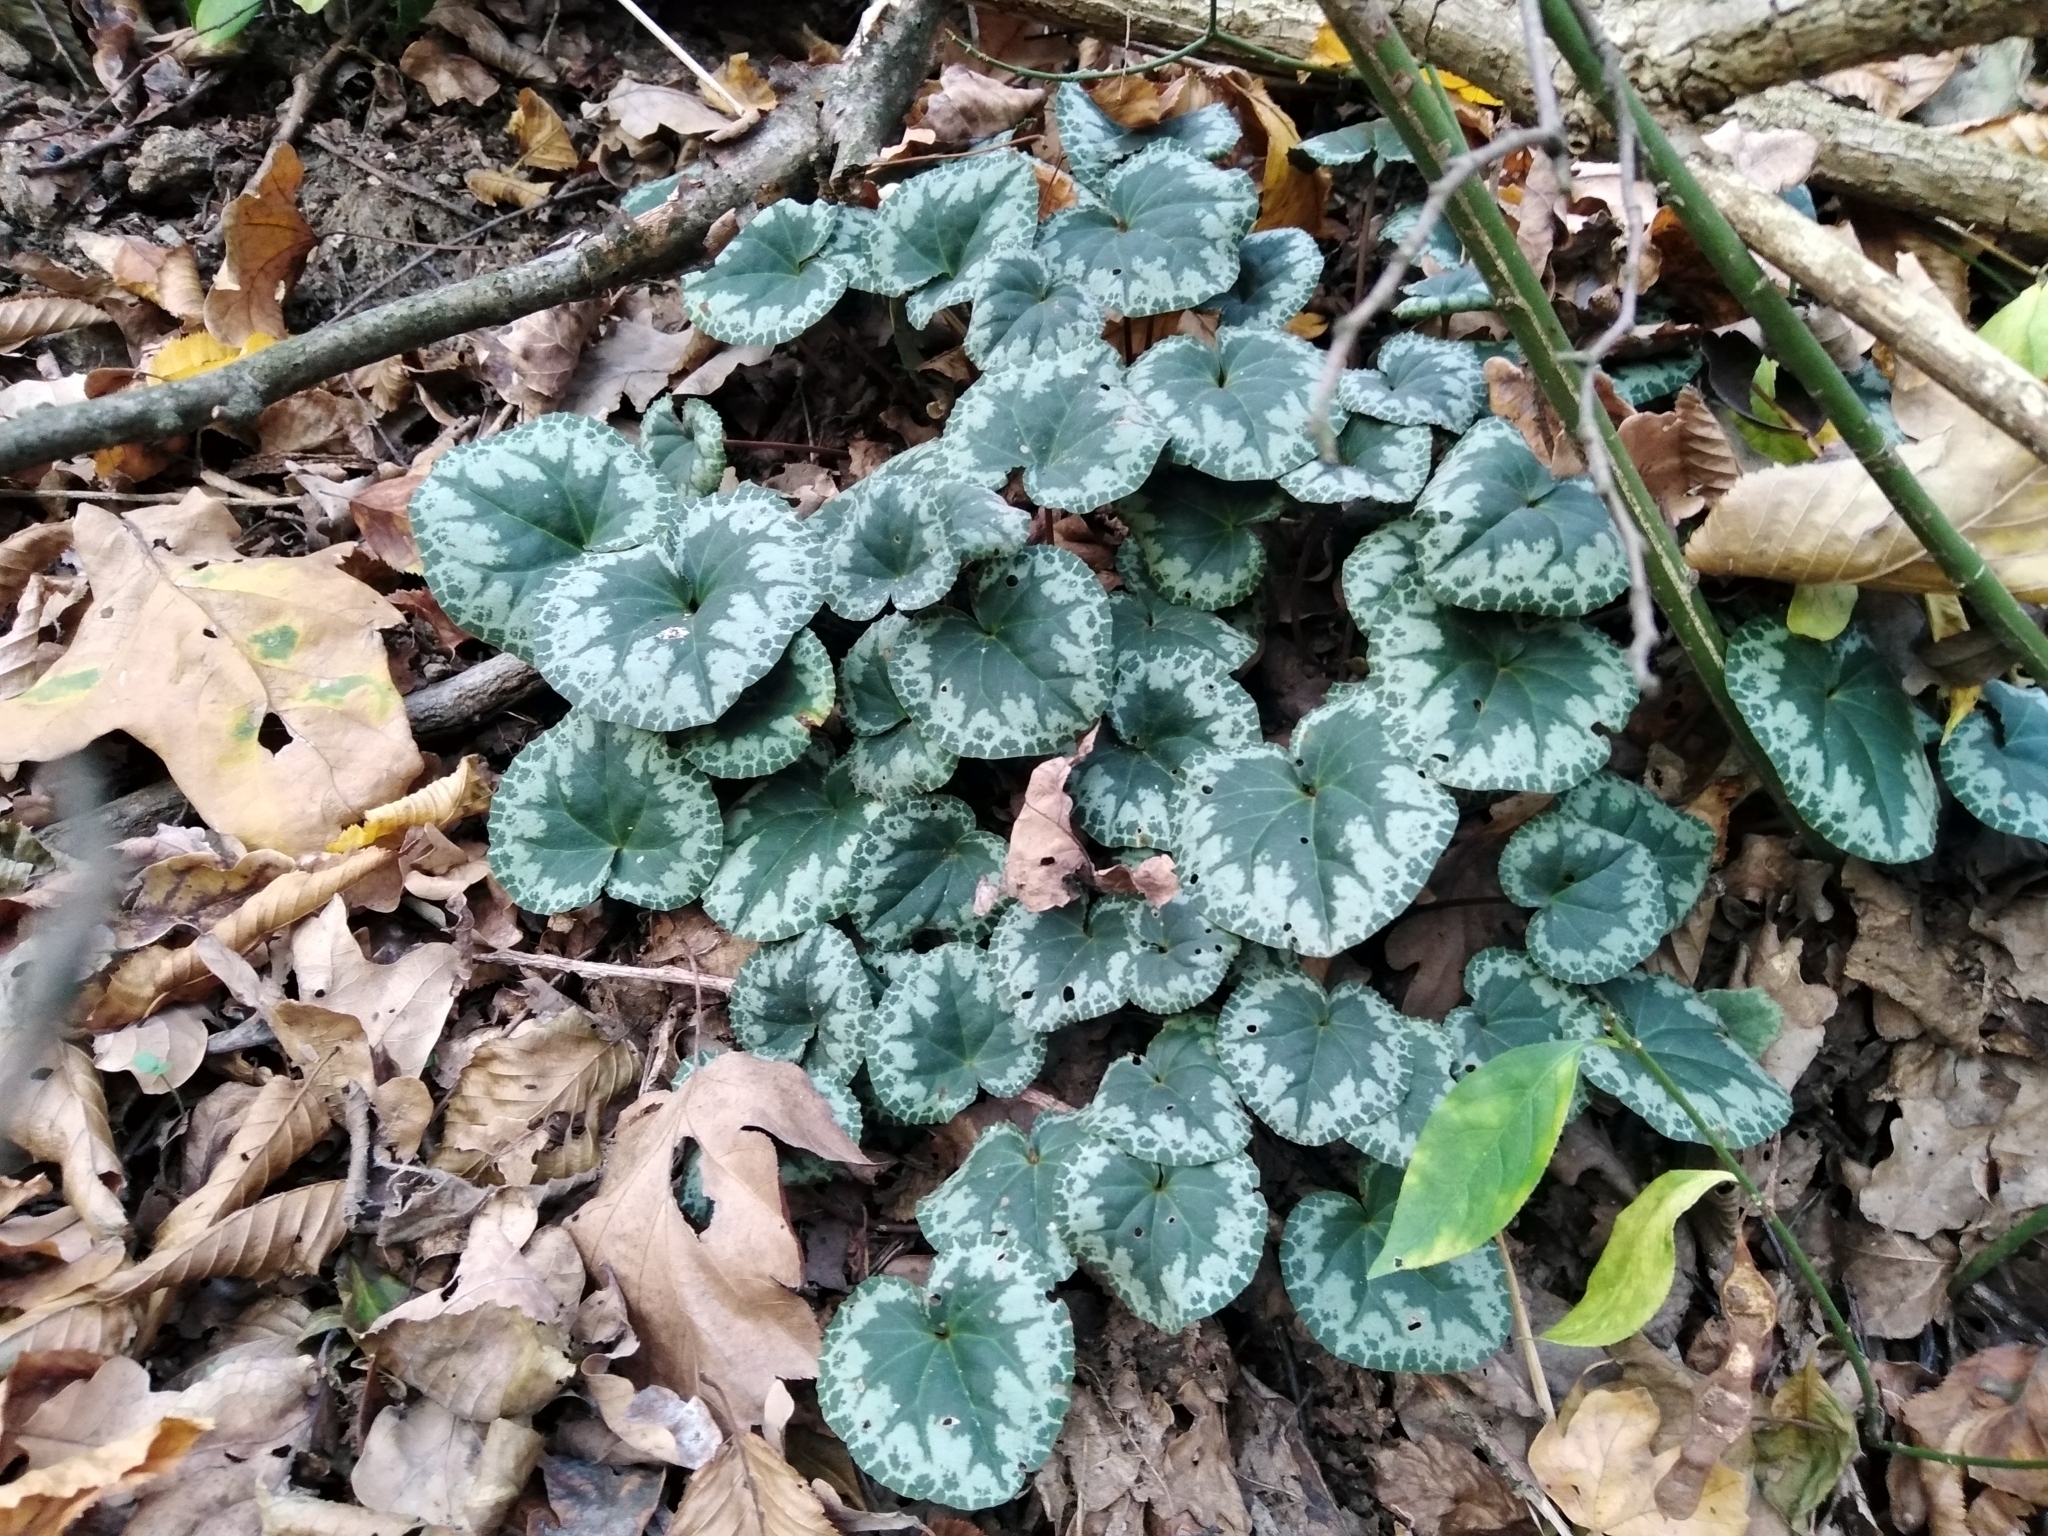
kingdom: Plantae
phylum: Tracheophyta
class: Magnoliopsida
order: Ericales
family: Primulaceae
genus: Cyclamen
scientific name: Cyclamen purpurascens
